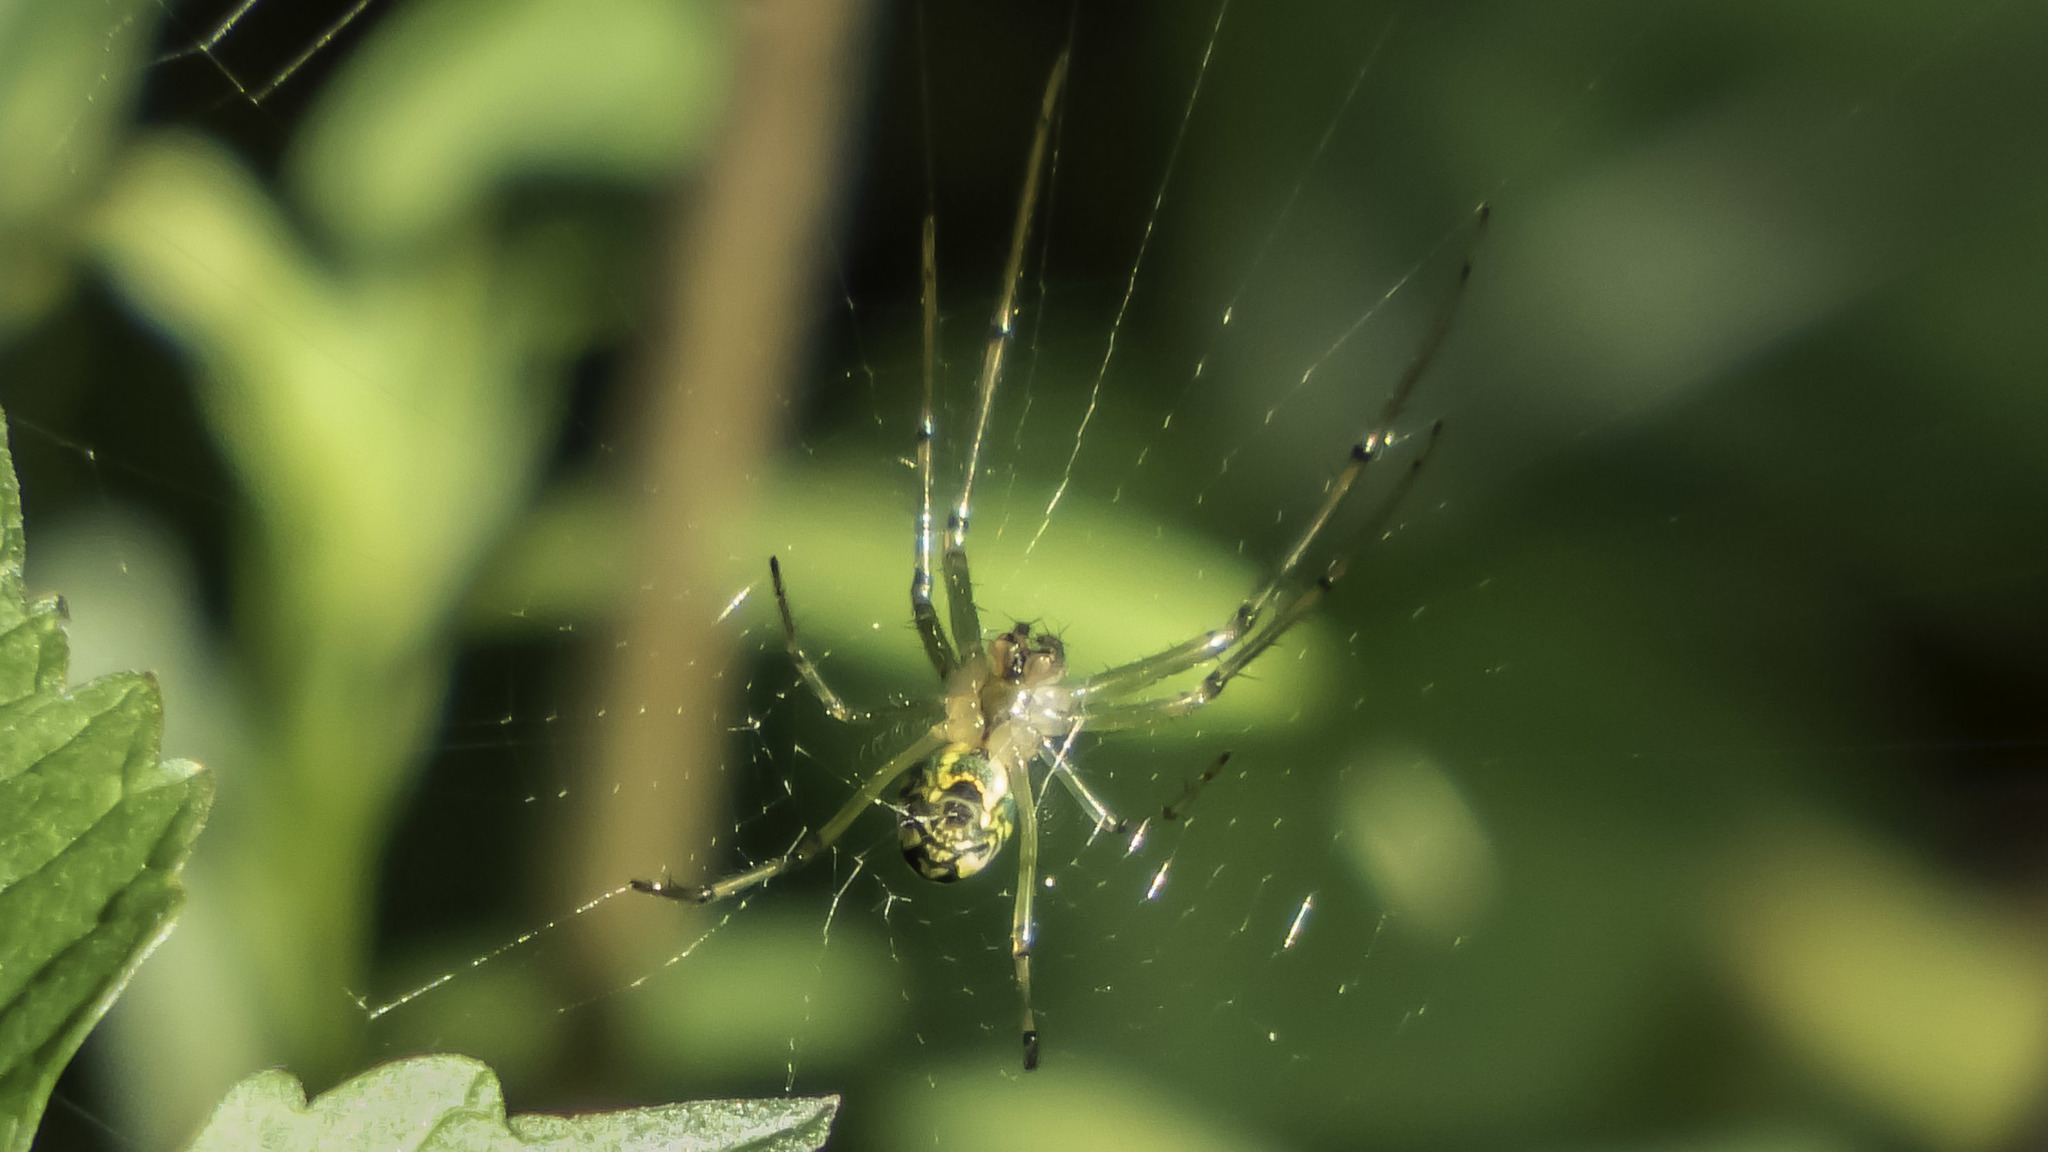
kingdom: Animalia
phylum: Arthropoda
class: Arachnida
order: Araneae
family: Tetragnathidae
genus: Leucauge
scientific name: Leucauge venusta
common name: Longjawed orb weavers
